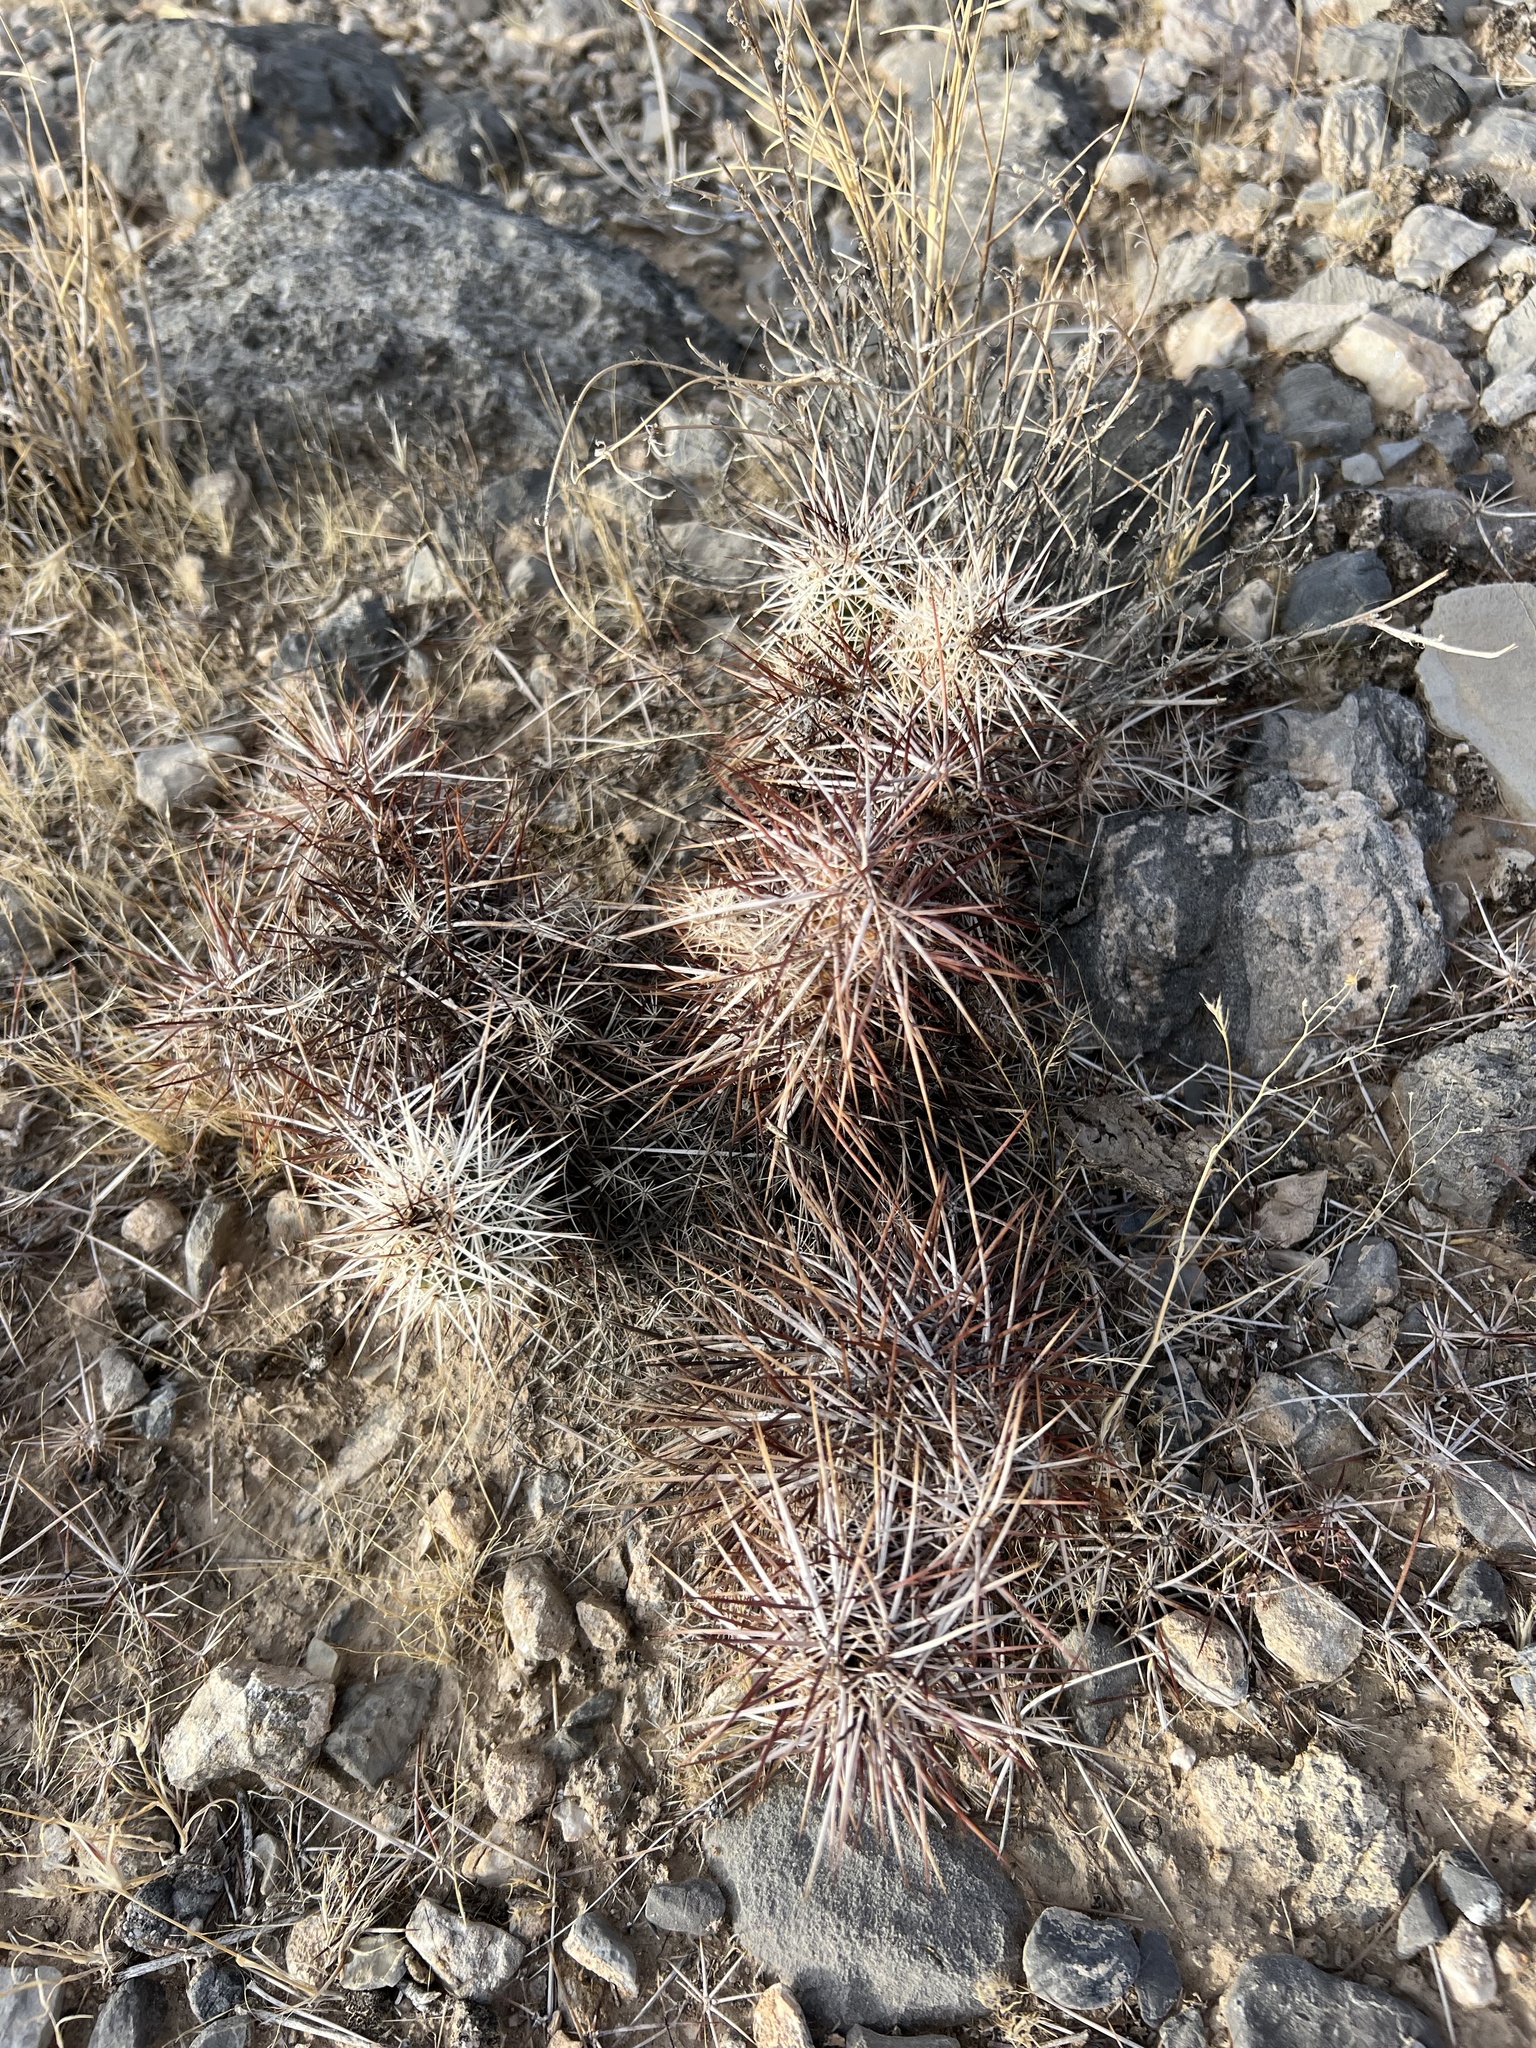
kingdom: Plantae
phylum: Tracheophyta
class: Magnoliopsida
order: Caryophyllales
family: Cactaceae
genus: Echinocereus
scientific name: Echinocereus engelmannii
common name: Engelmann's hedgehog cactus
